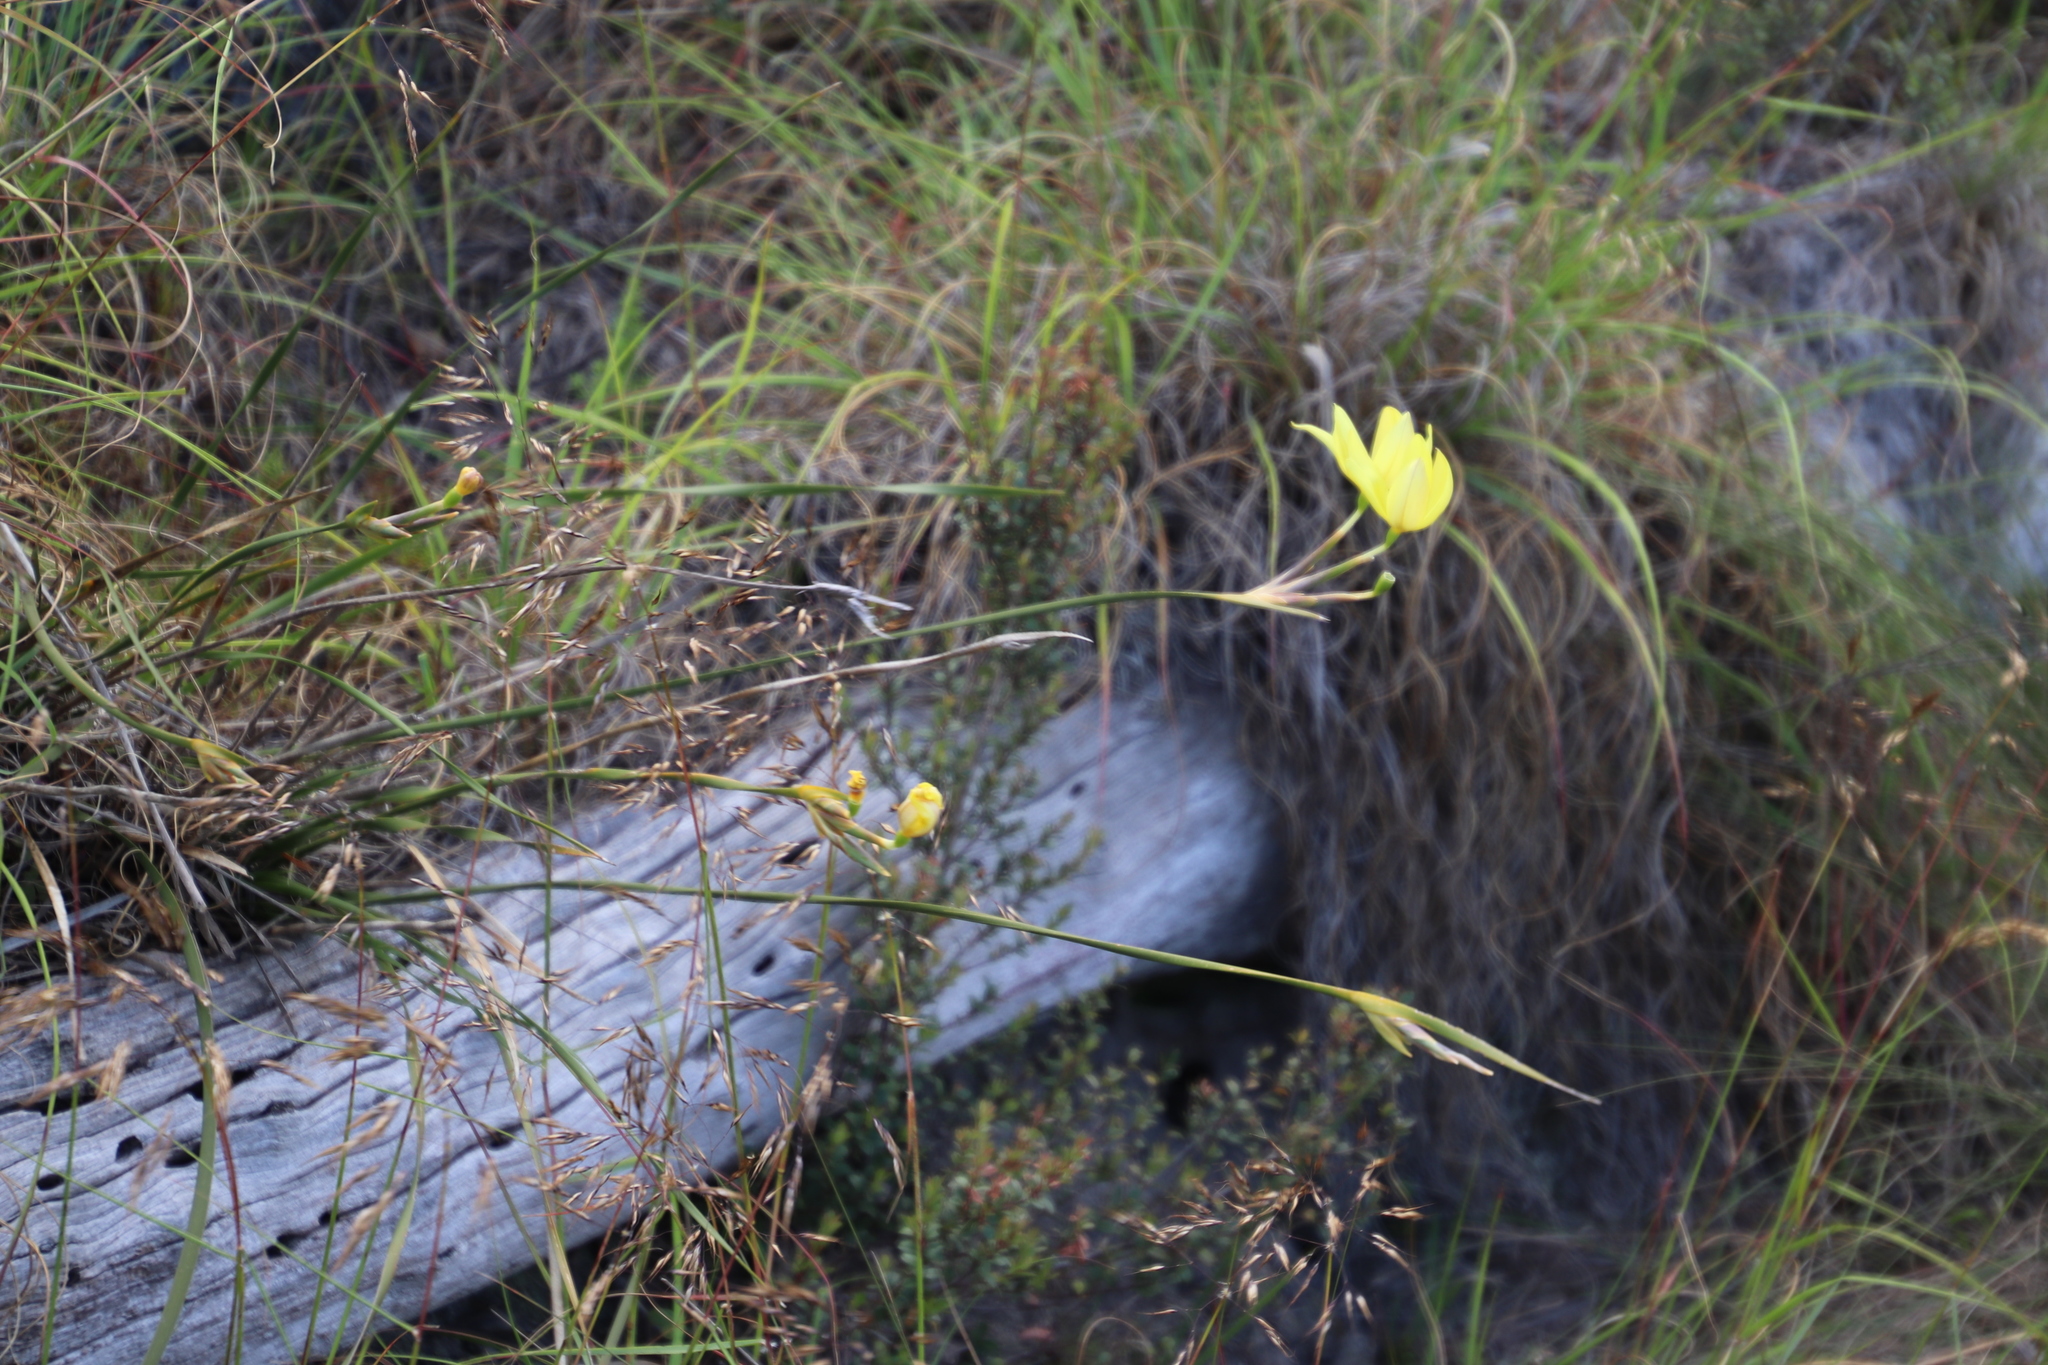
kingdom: Plantae
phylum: Tracheophyta
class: Liliopsida
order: Asparagales
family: Iridaceae
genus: Bobartia
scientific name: Bobartia gladiata
